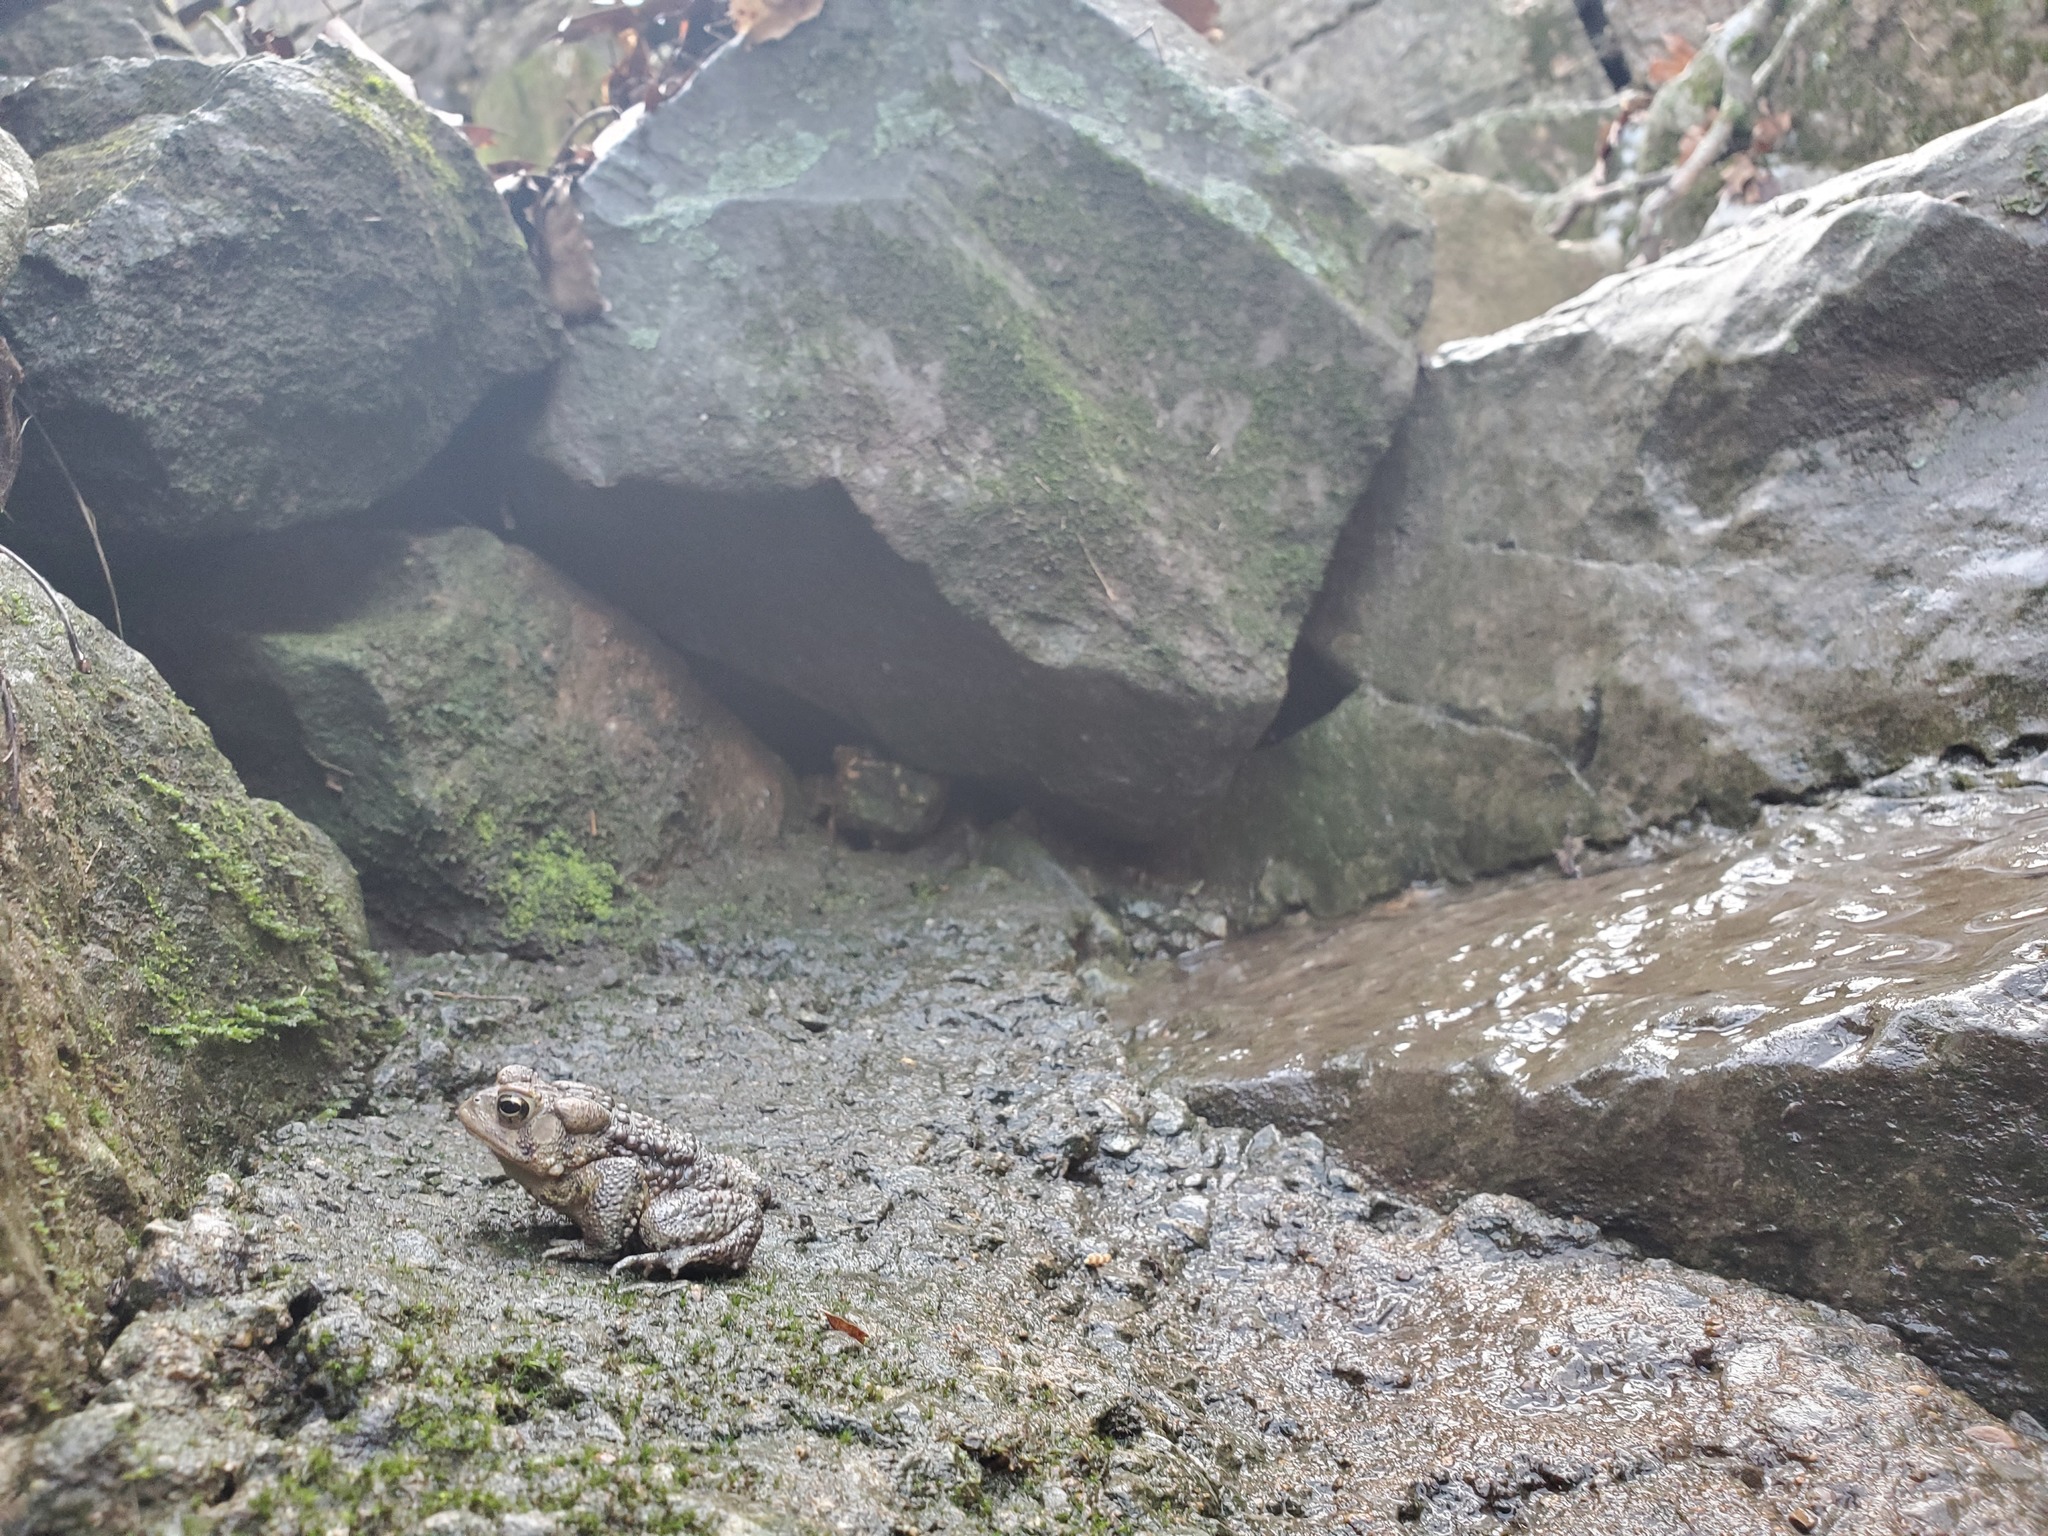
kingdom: Animalia
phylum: Chordata
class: Amphibia
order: Anura
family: Bufonidae
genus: Anaxyrus
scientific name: Anaxyrus americanus
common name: American toad
